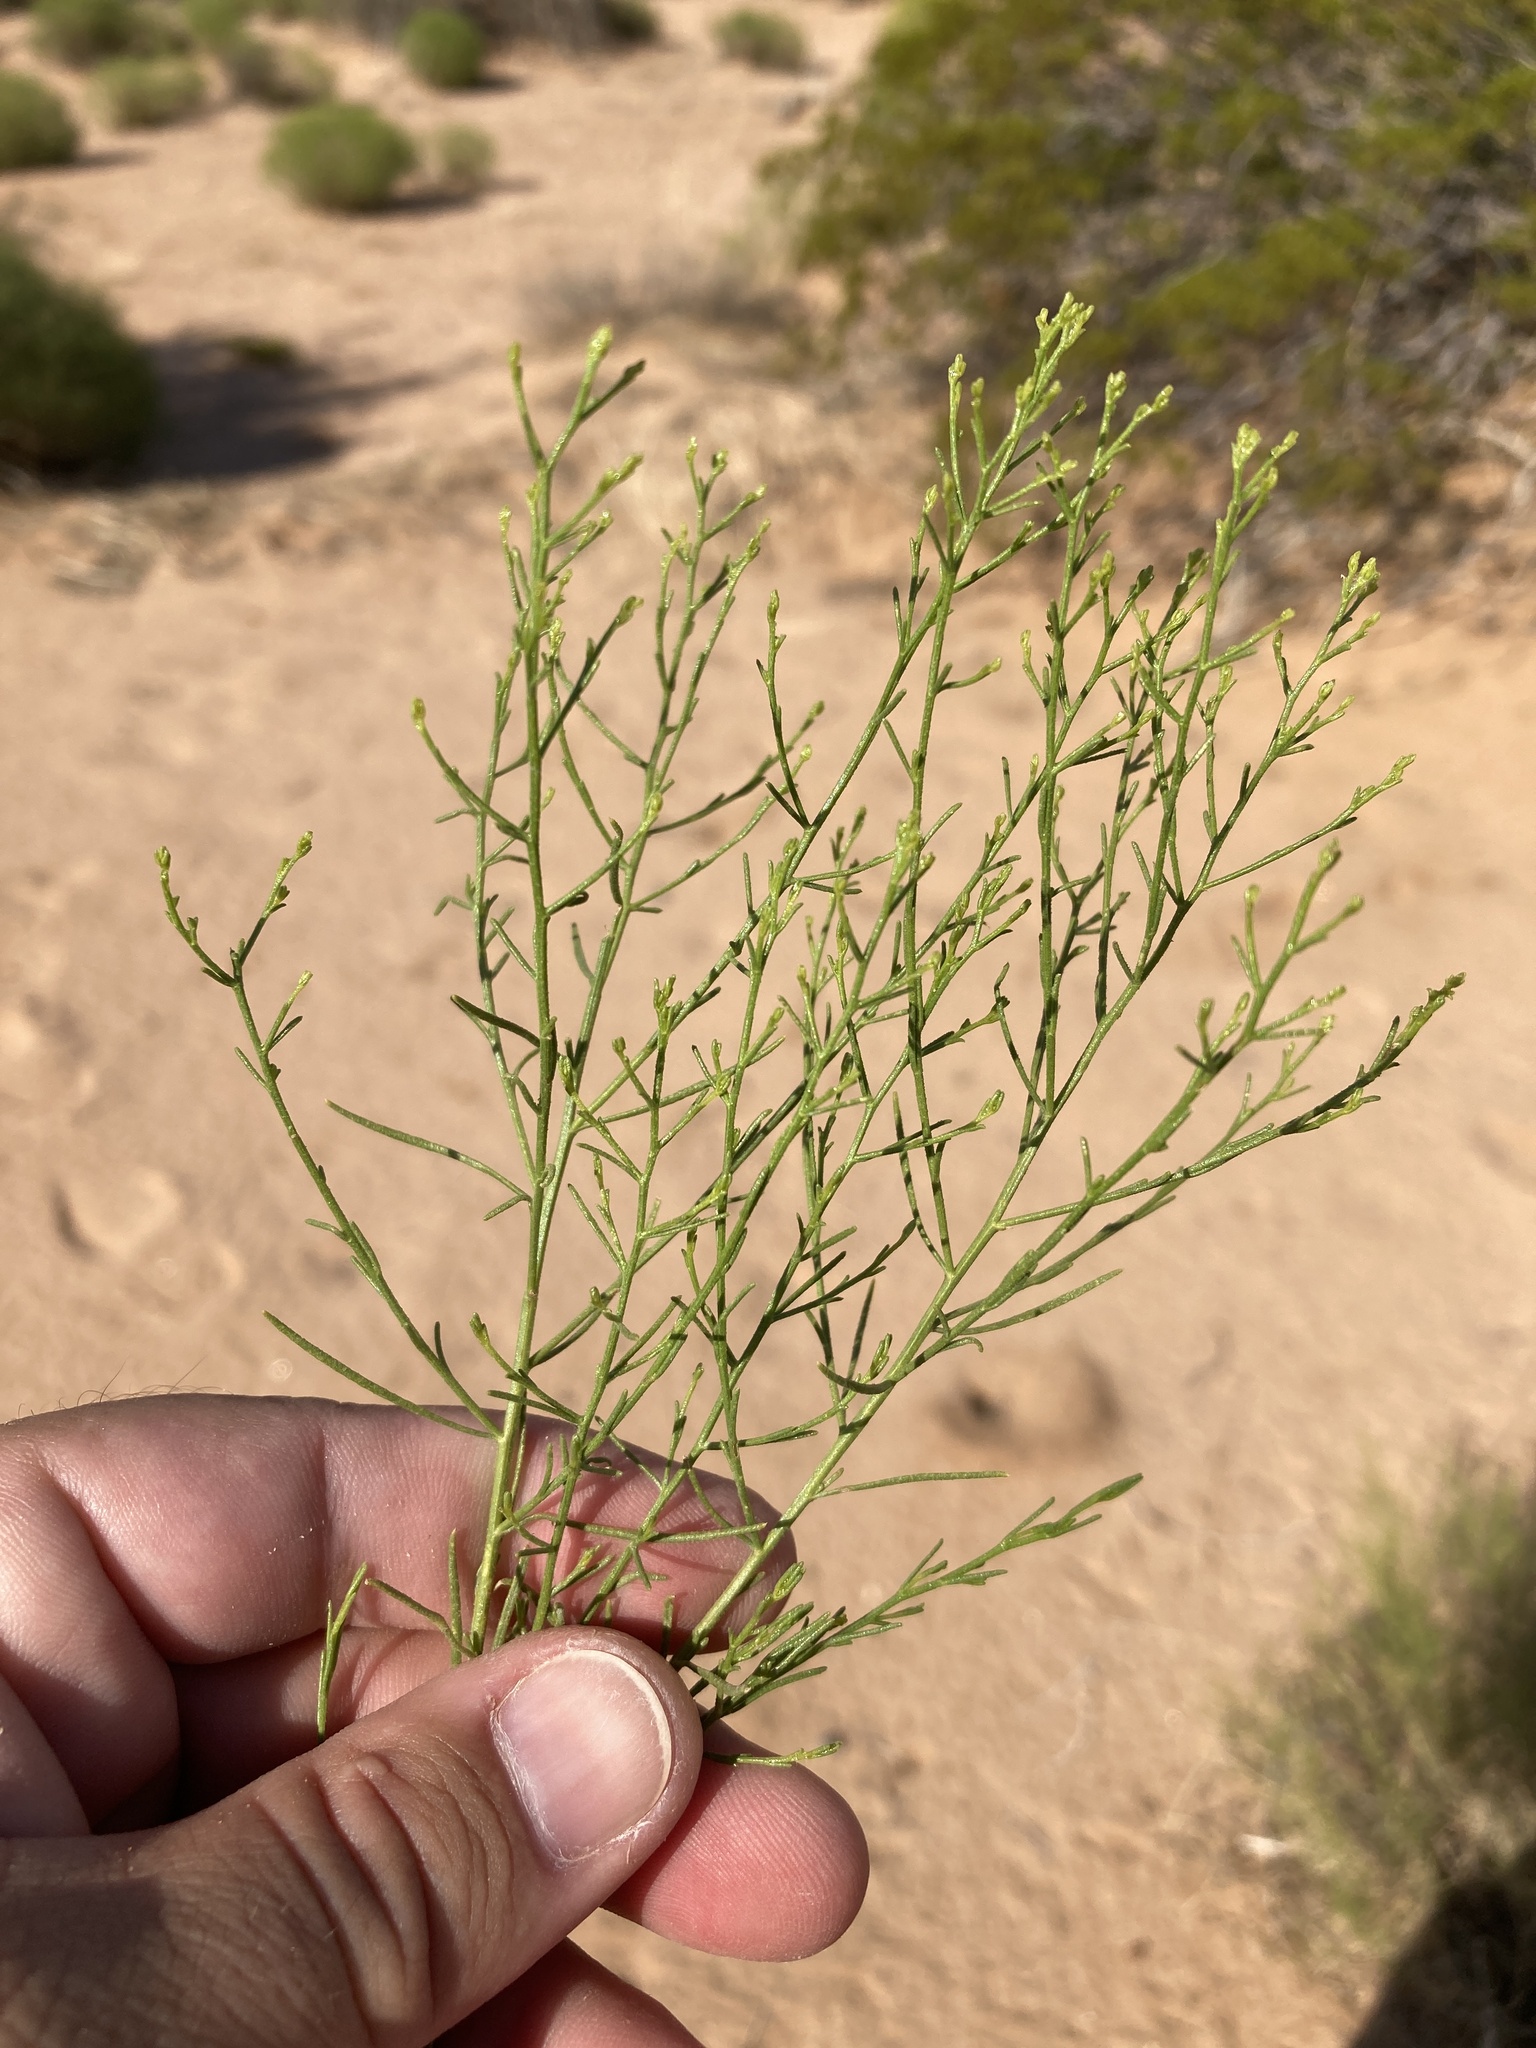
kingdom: Plantae
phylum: Tracheophyta
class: Magnoliopsida
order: Asterales
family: Asteraceae
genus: Gutierrezia
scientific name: Gutierrezia sarothrae
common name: Broom snakeweed
